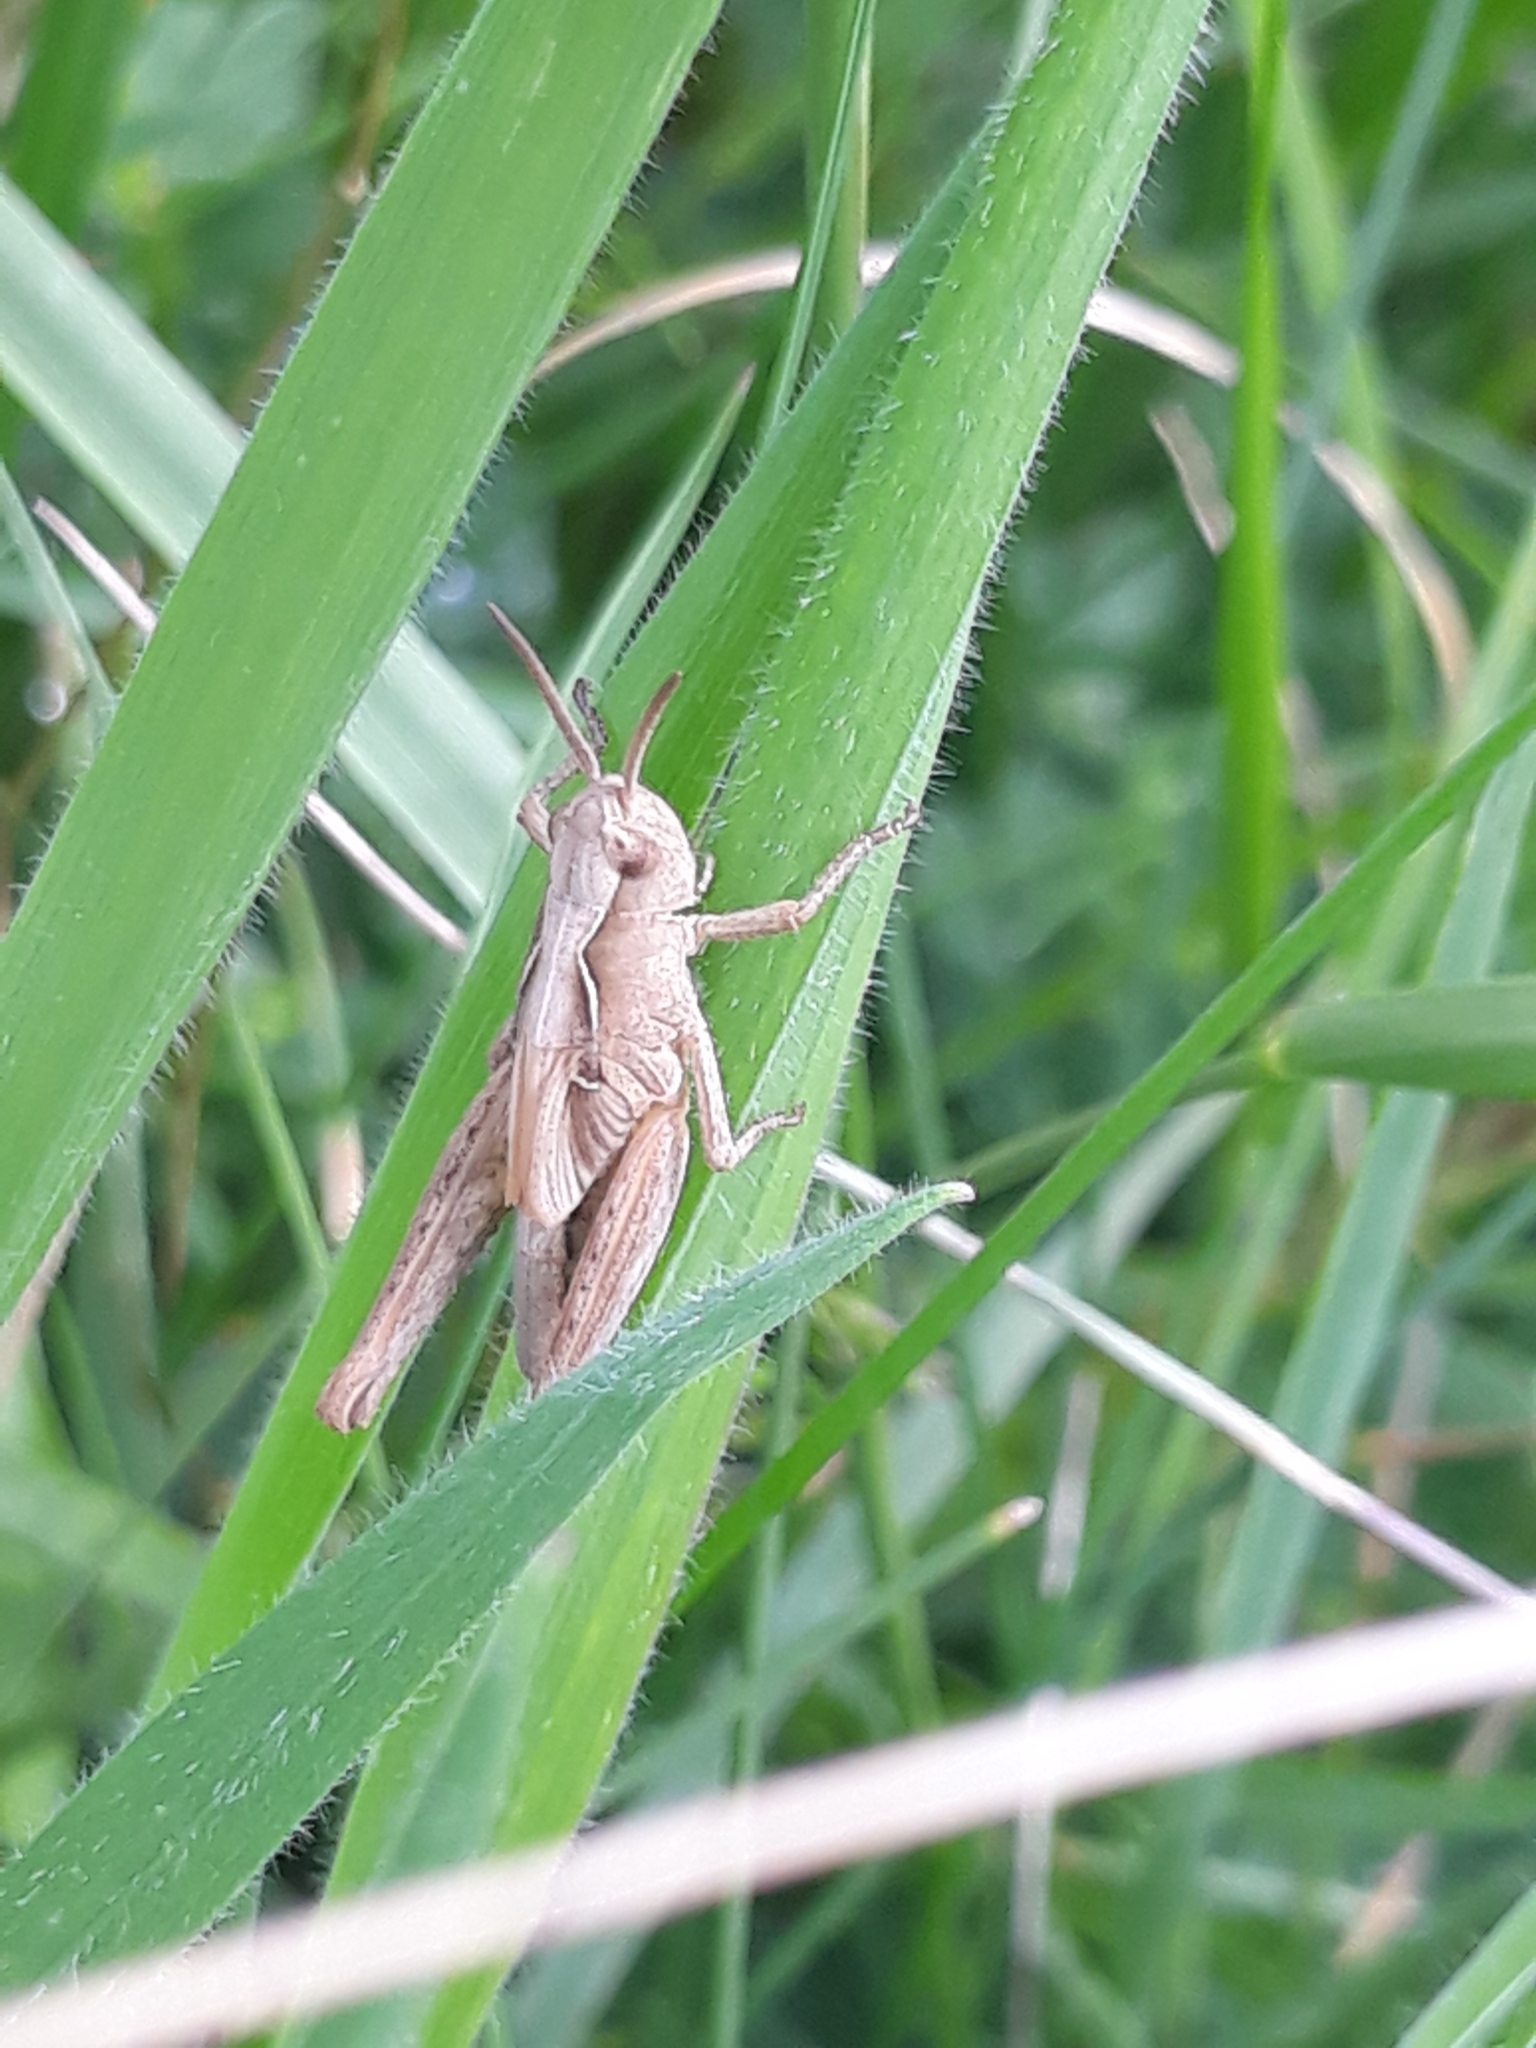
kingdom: Animalia
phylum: Arthropoda
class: Insecta
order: Orthoptera
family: Acrididae
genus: Chorthippus
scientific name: Chorthippus brunneus
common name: Field grasshopper
